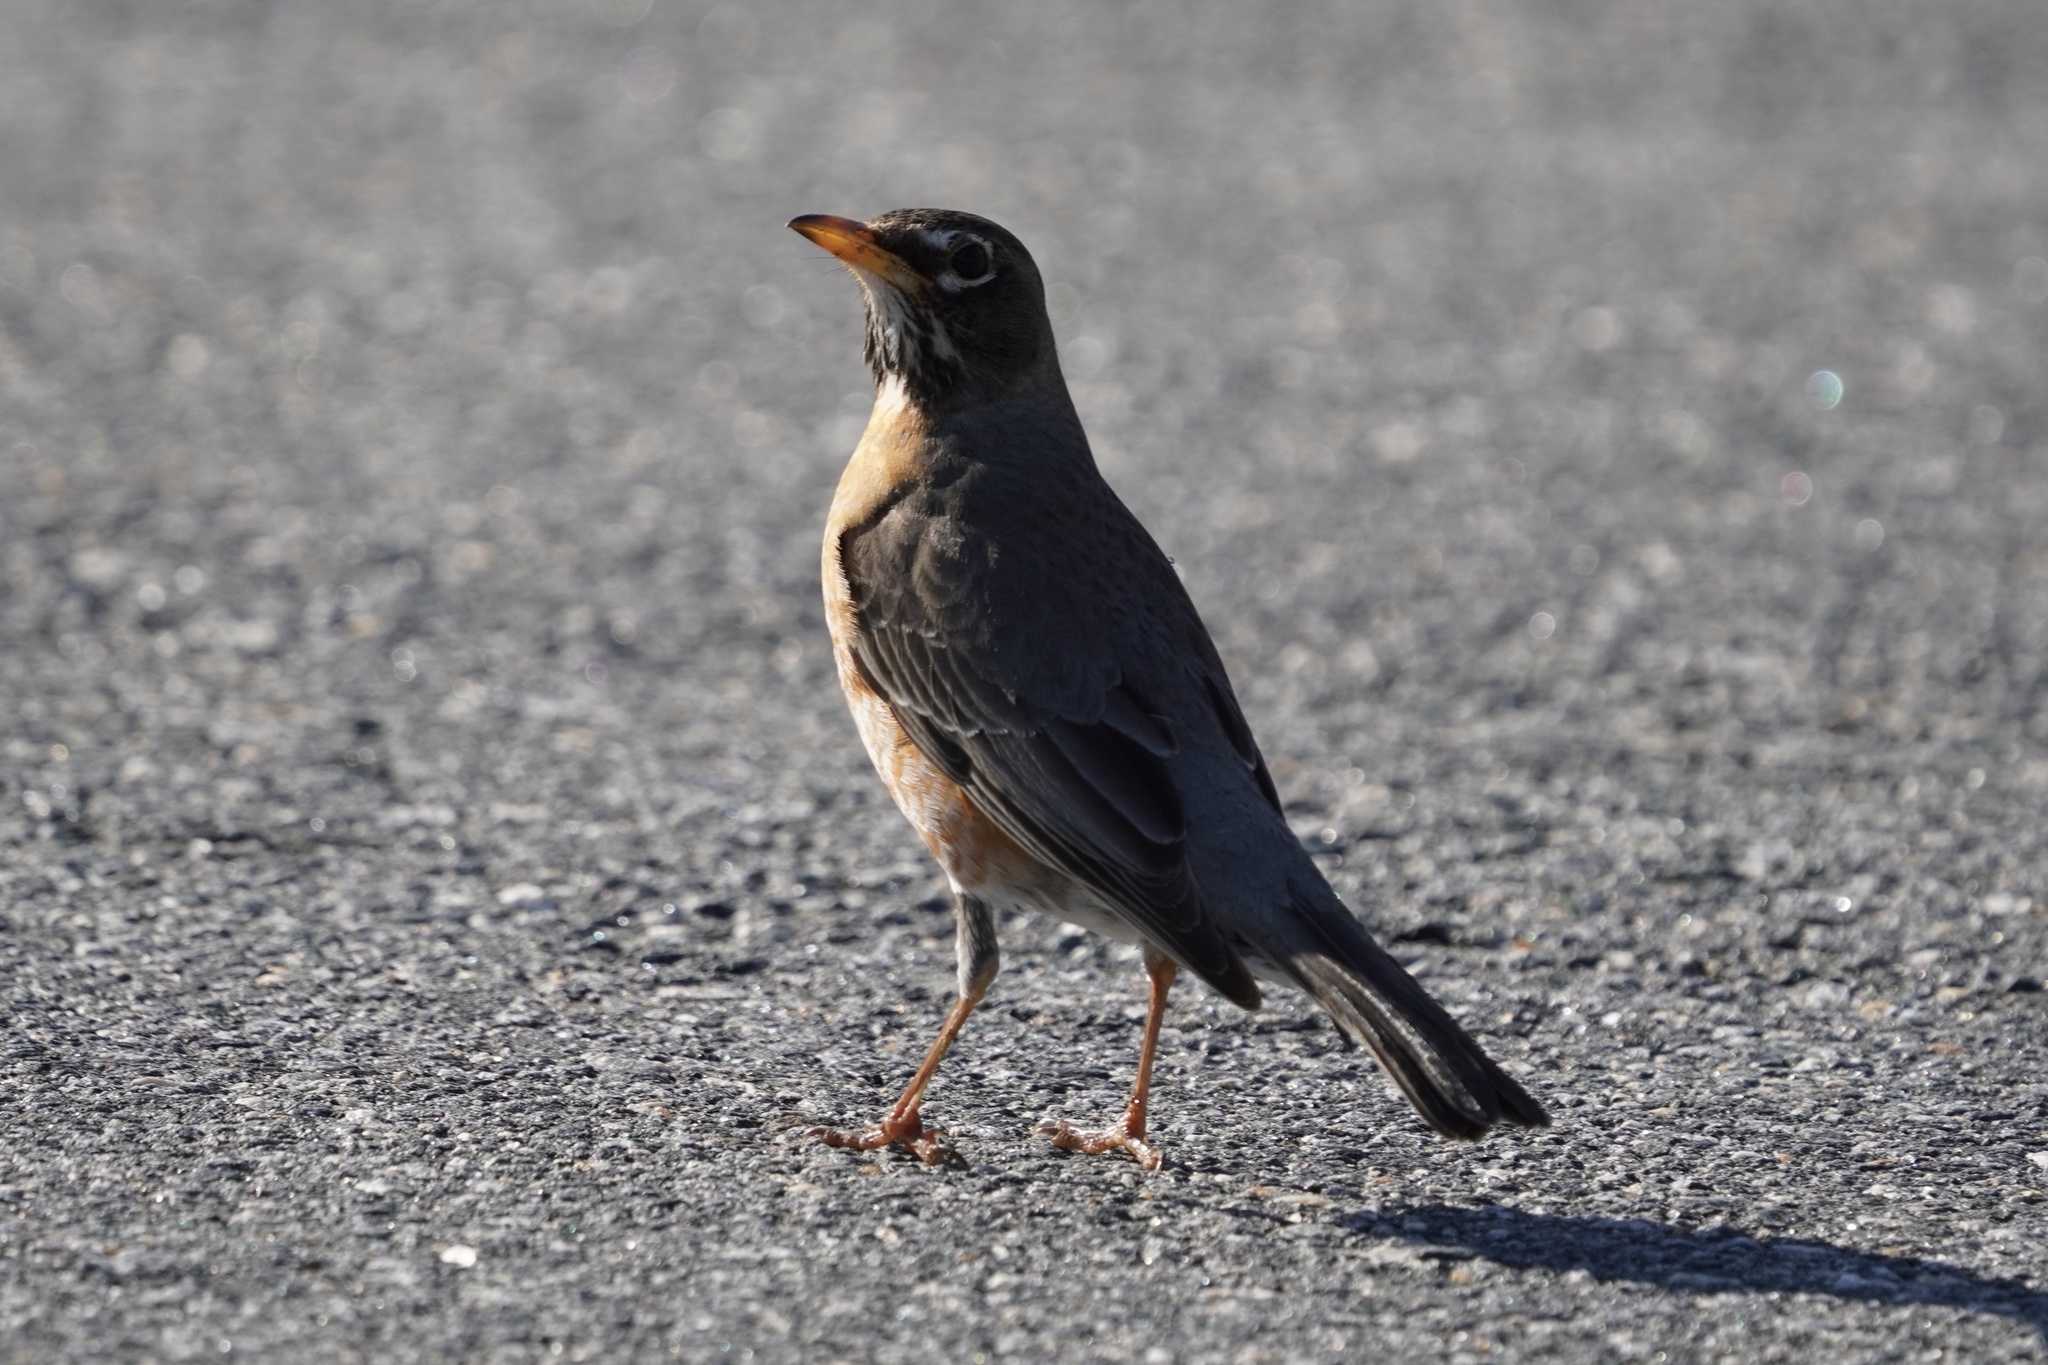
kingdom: Animalia
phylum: Chordata
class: Aves
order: Passeriformes
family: Turdidae
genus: Turdus
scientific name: Turdus migratorius
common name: American robin
